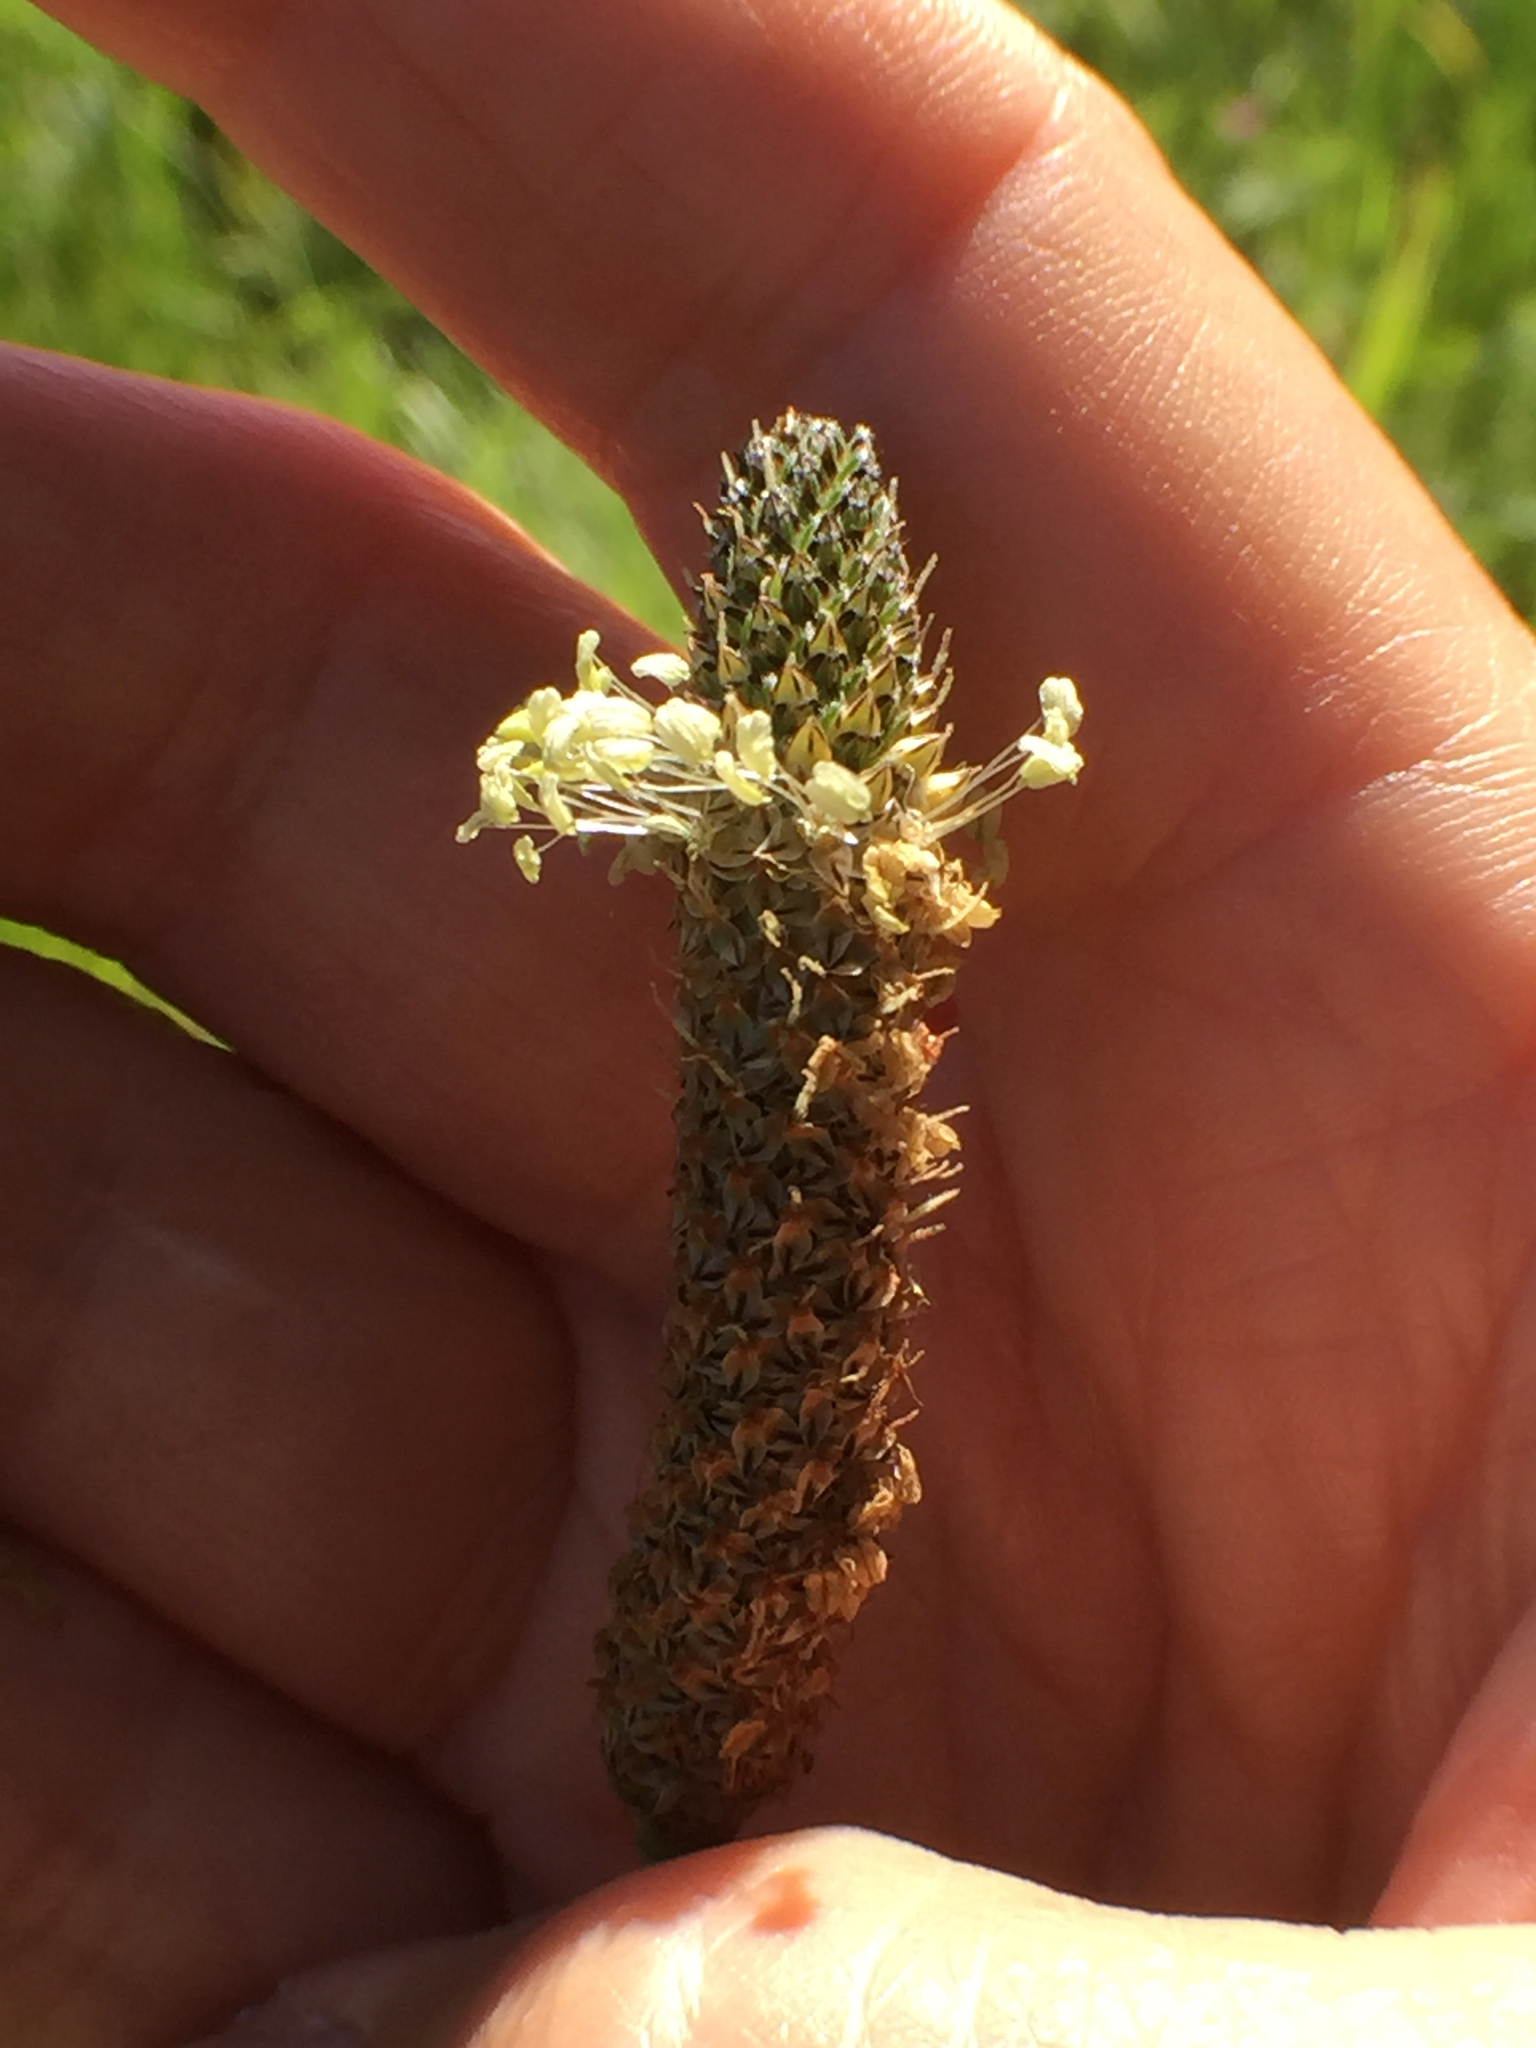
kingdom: Plantae
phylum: Tracheophyta
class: Magnoliopsida
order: Lamiales
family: Plantaginaceae
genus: Plantago
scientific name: Plantago lanceolata
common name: Ribwort plantain
